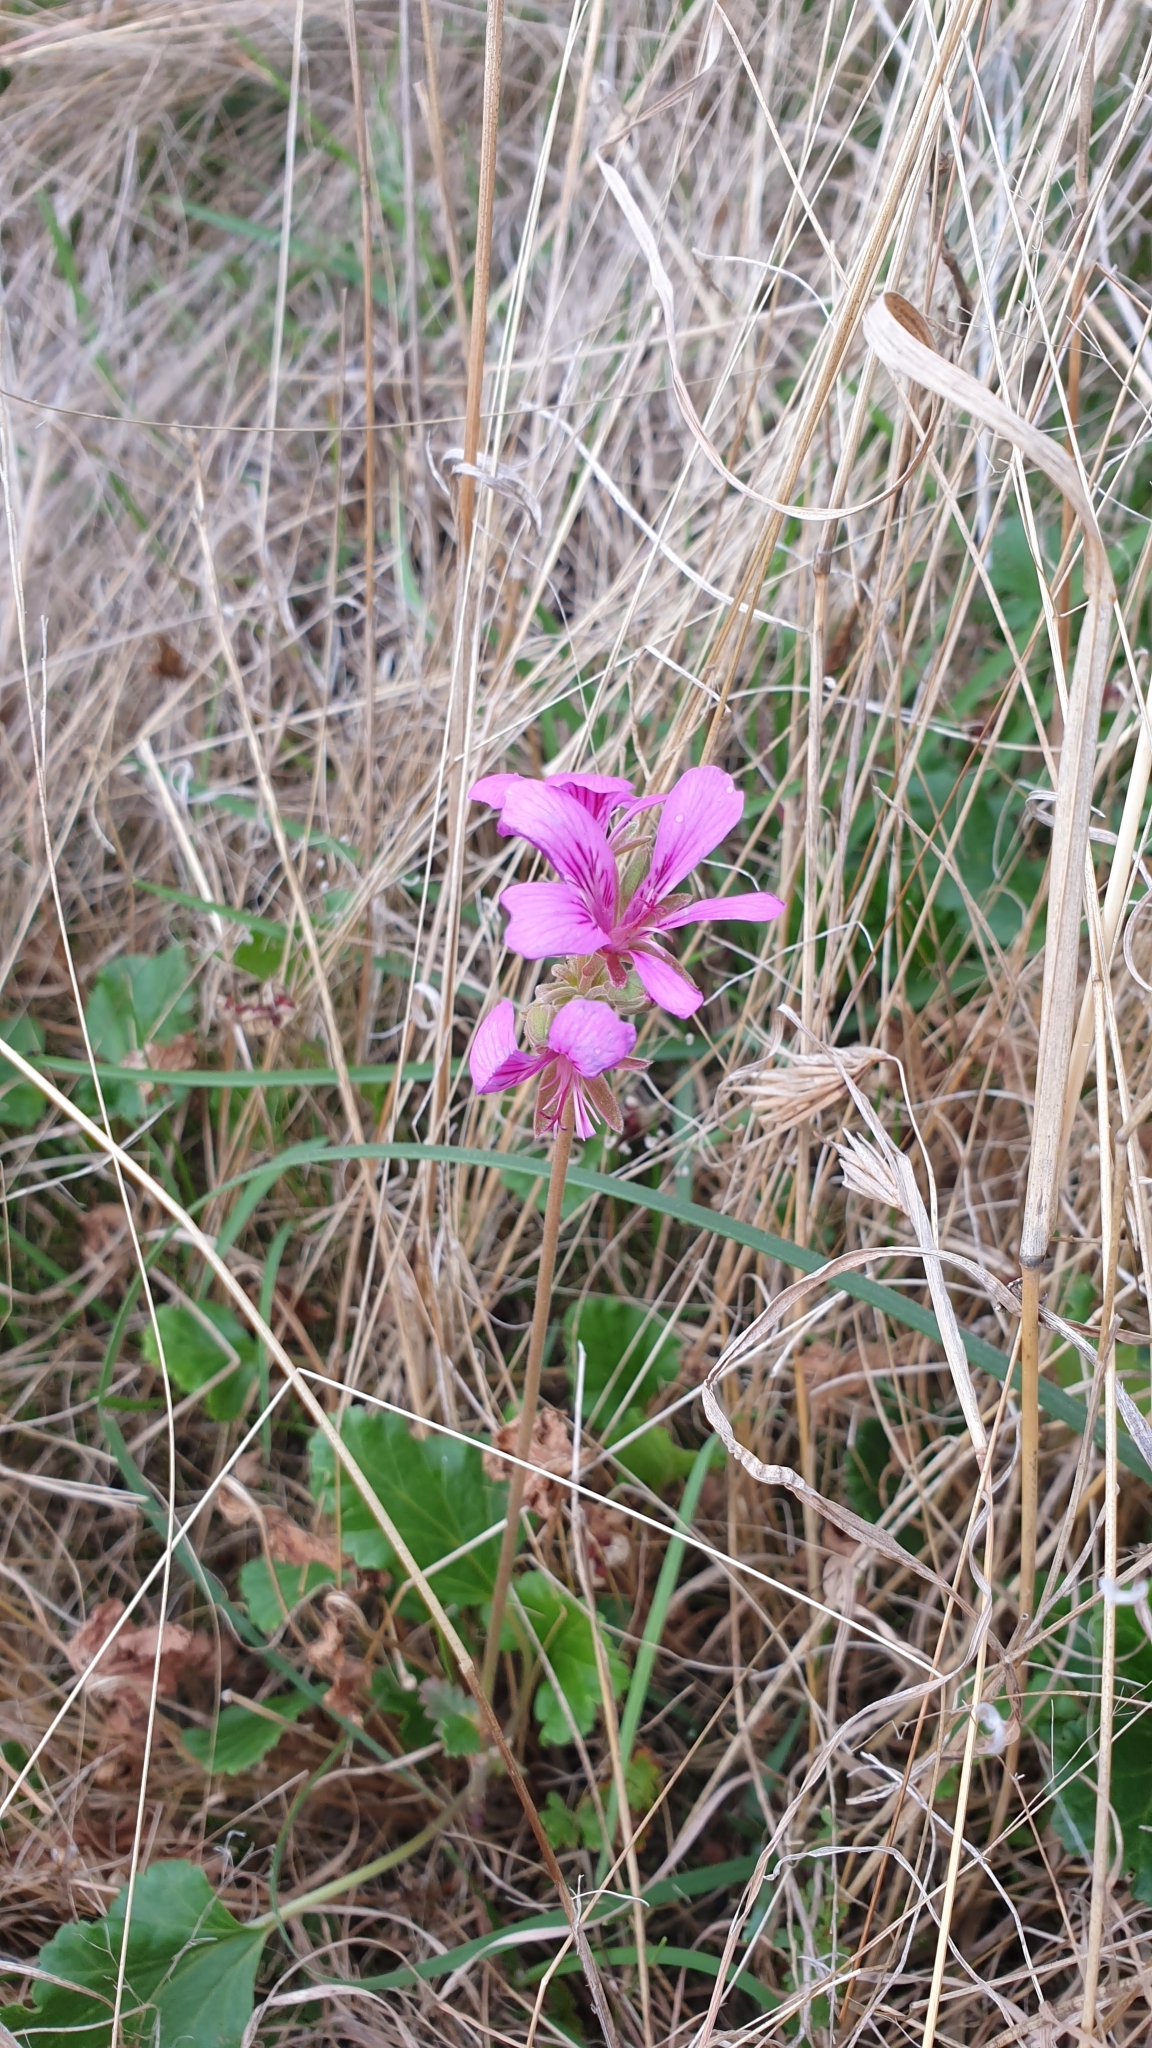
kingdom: Plantae
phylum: Tracheophyta
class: Magnoliopsida
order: Geraniales
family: Geraniaceae
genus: Pelargonium
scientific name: Pelargonium rodneyanum
